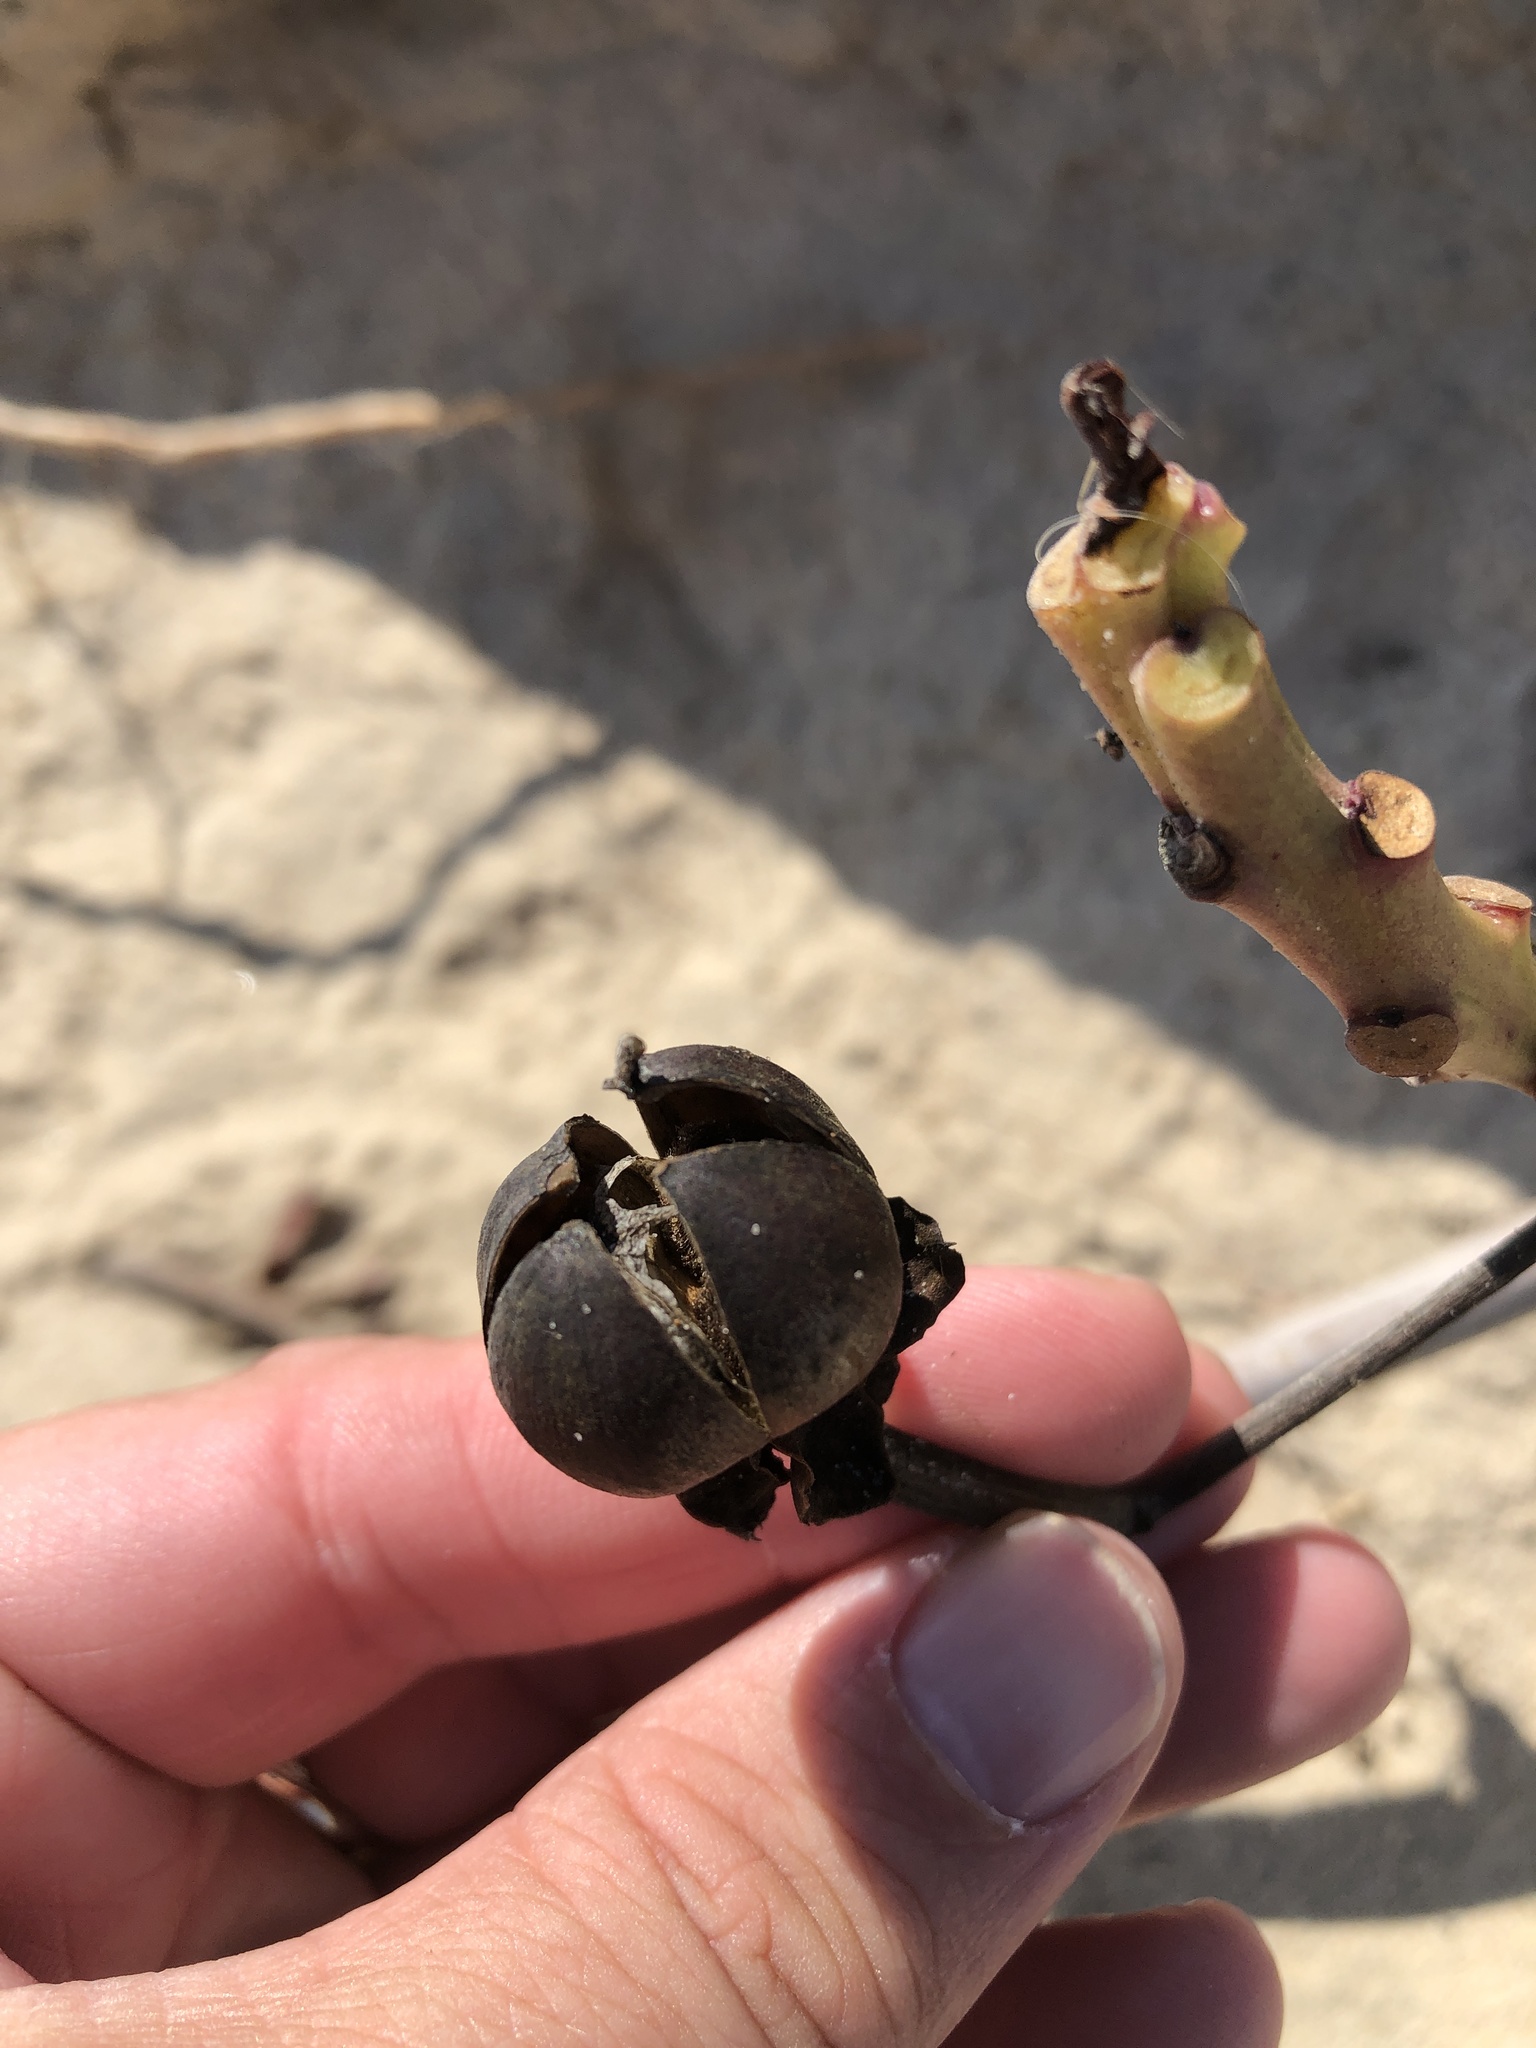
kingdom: Plantae
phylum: Tracheophyta
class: Magnoliopsida
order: Solanales
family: Convolvulaceae
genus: Ipomoea
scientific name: Ipomoea pes-caprae
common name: Beach morning glory
